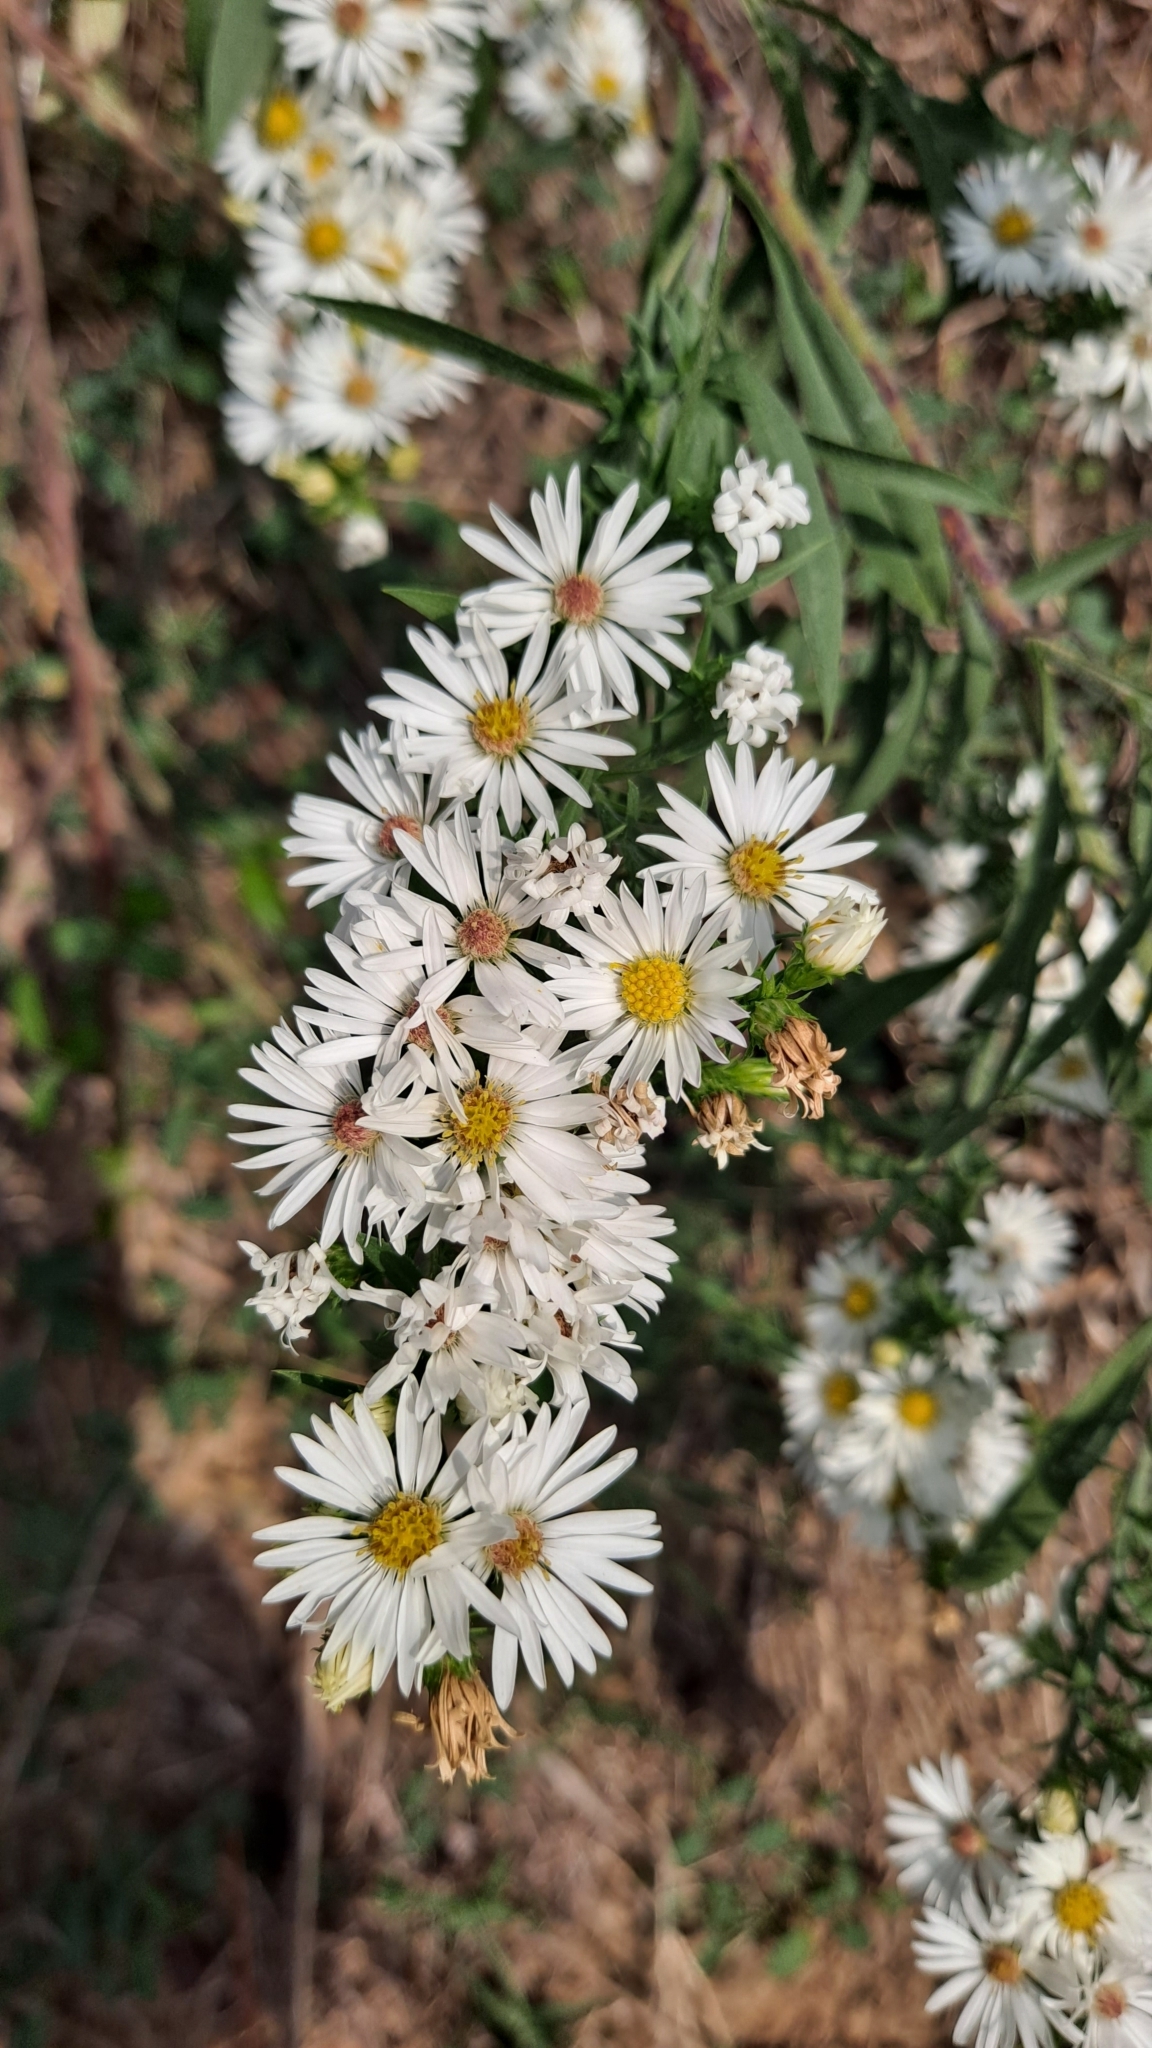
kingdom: Plantae
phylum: Tracheophyta
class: Magnoliopsida
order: Asterales
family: Asteraceae
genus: Symphyotrichum
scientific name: Symphyotrichum pilosum
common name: Awl aster
